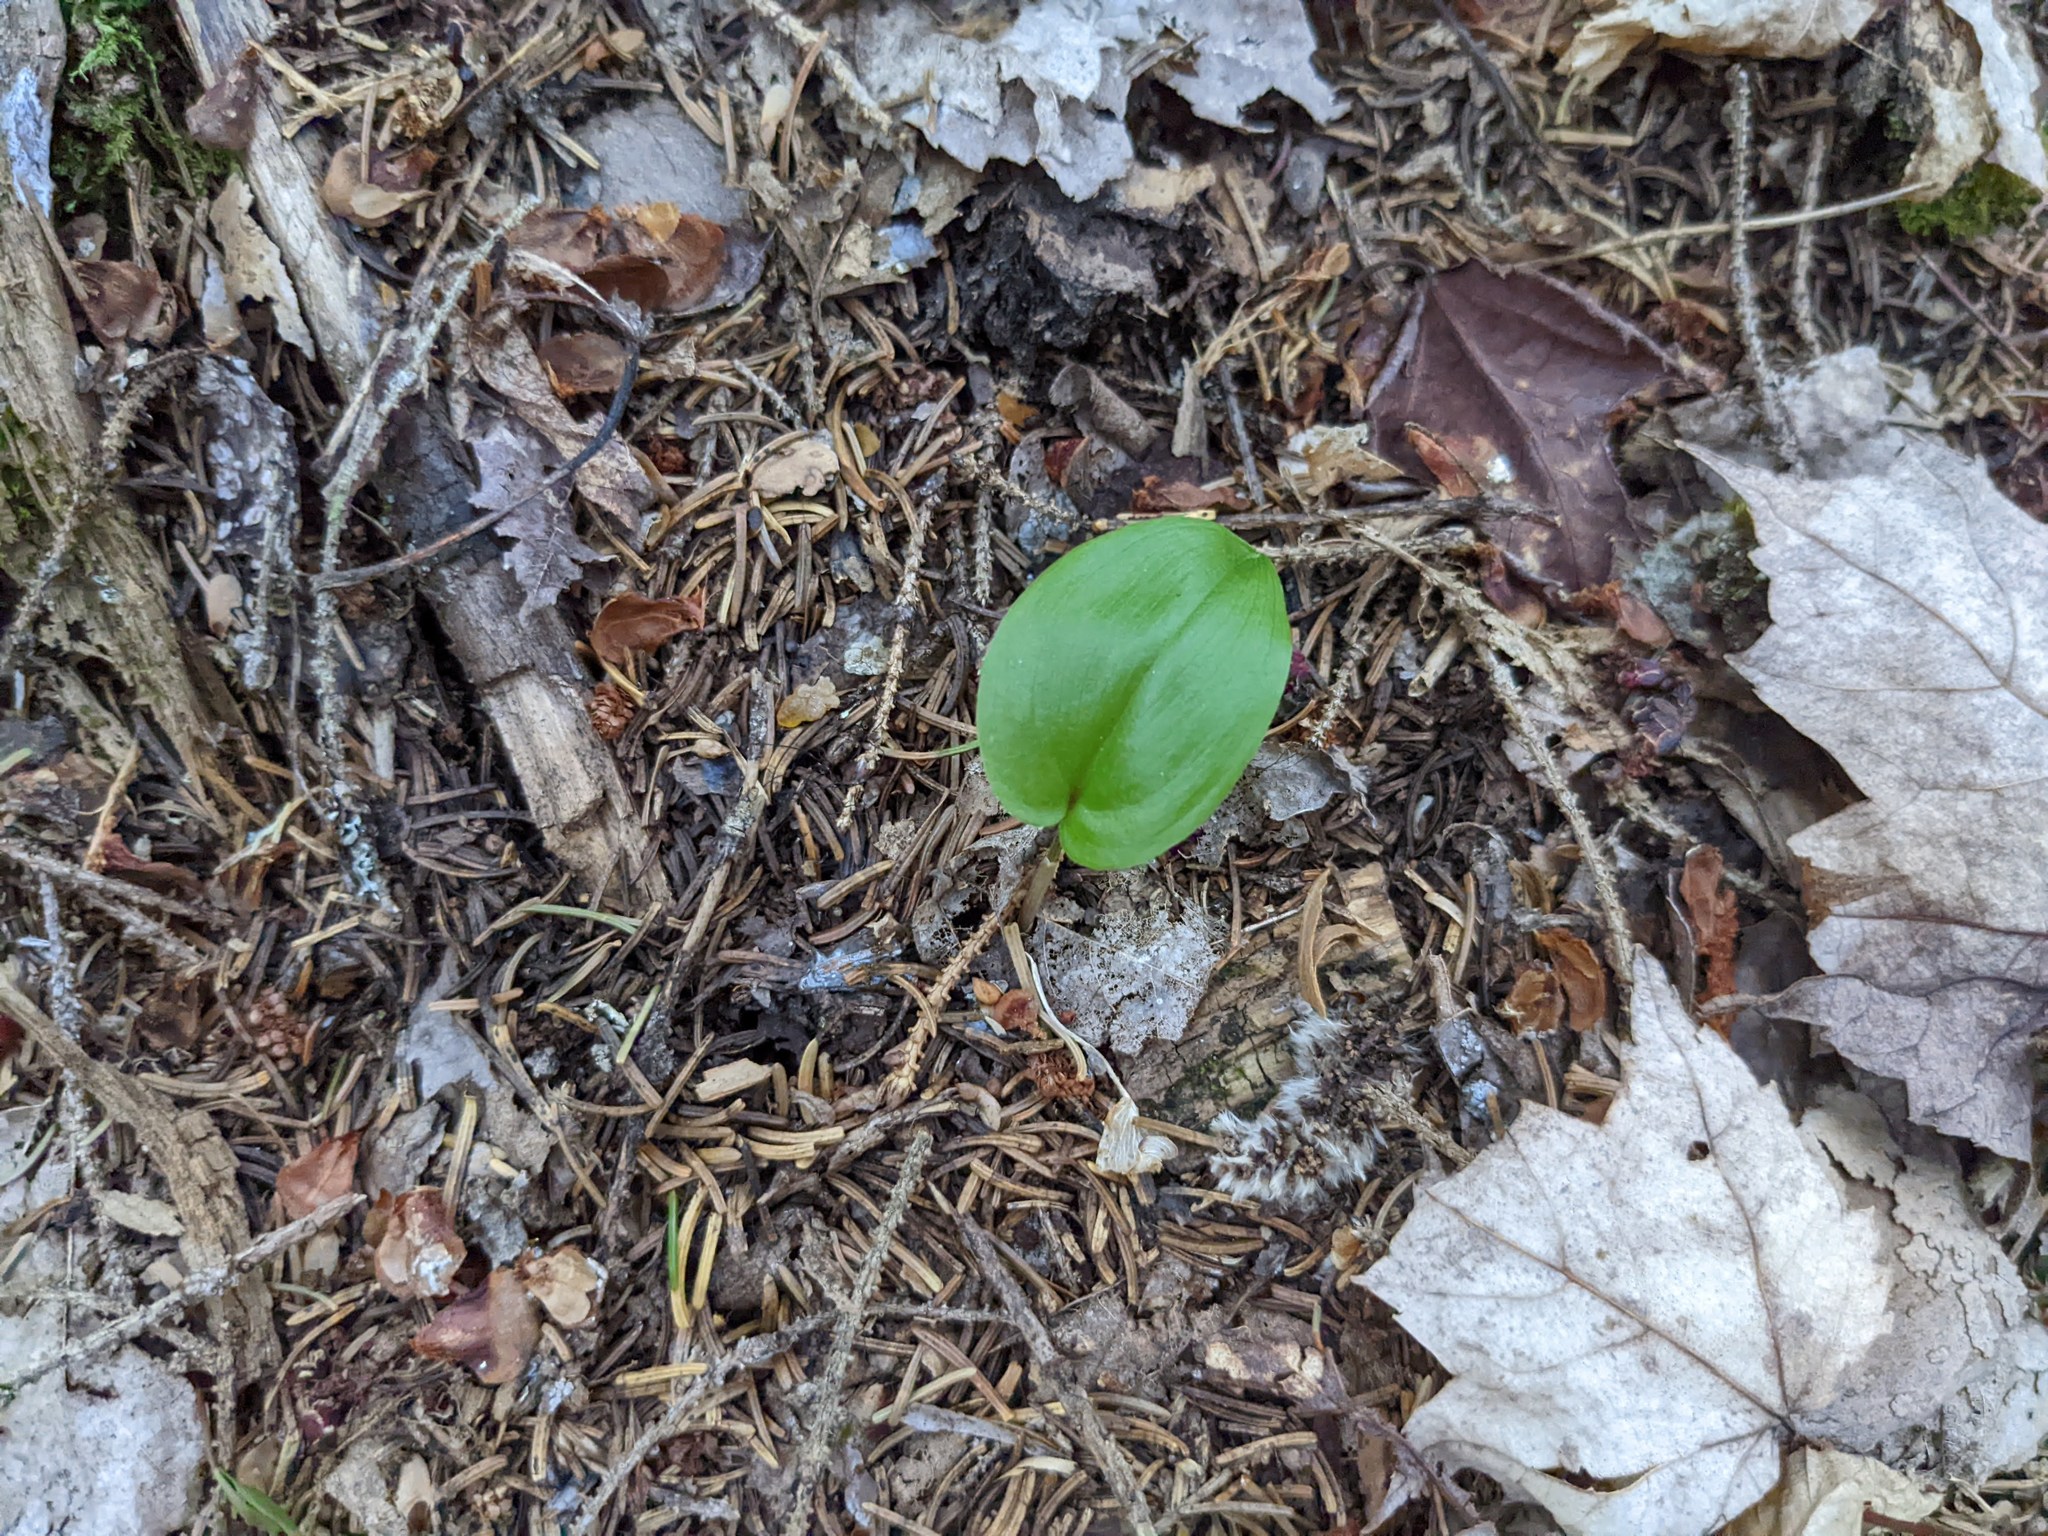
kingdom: Plantae
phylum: Tracheophyta
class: Liliopsida
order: Asparagales
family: Asparagaceae
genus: Maianthemum
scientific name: Maianthemum canadense
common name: False lily-of-the-valley
